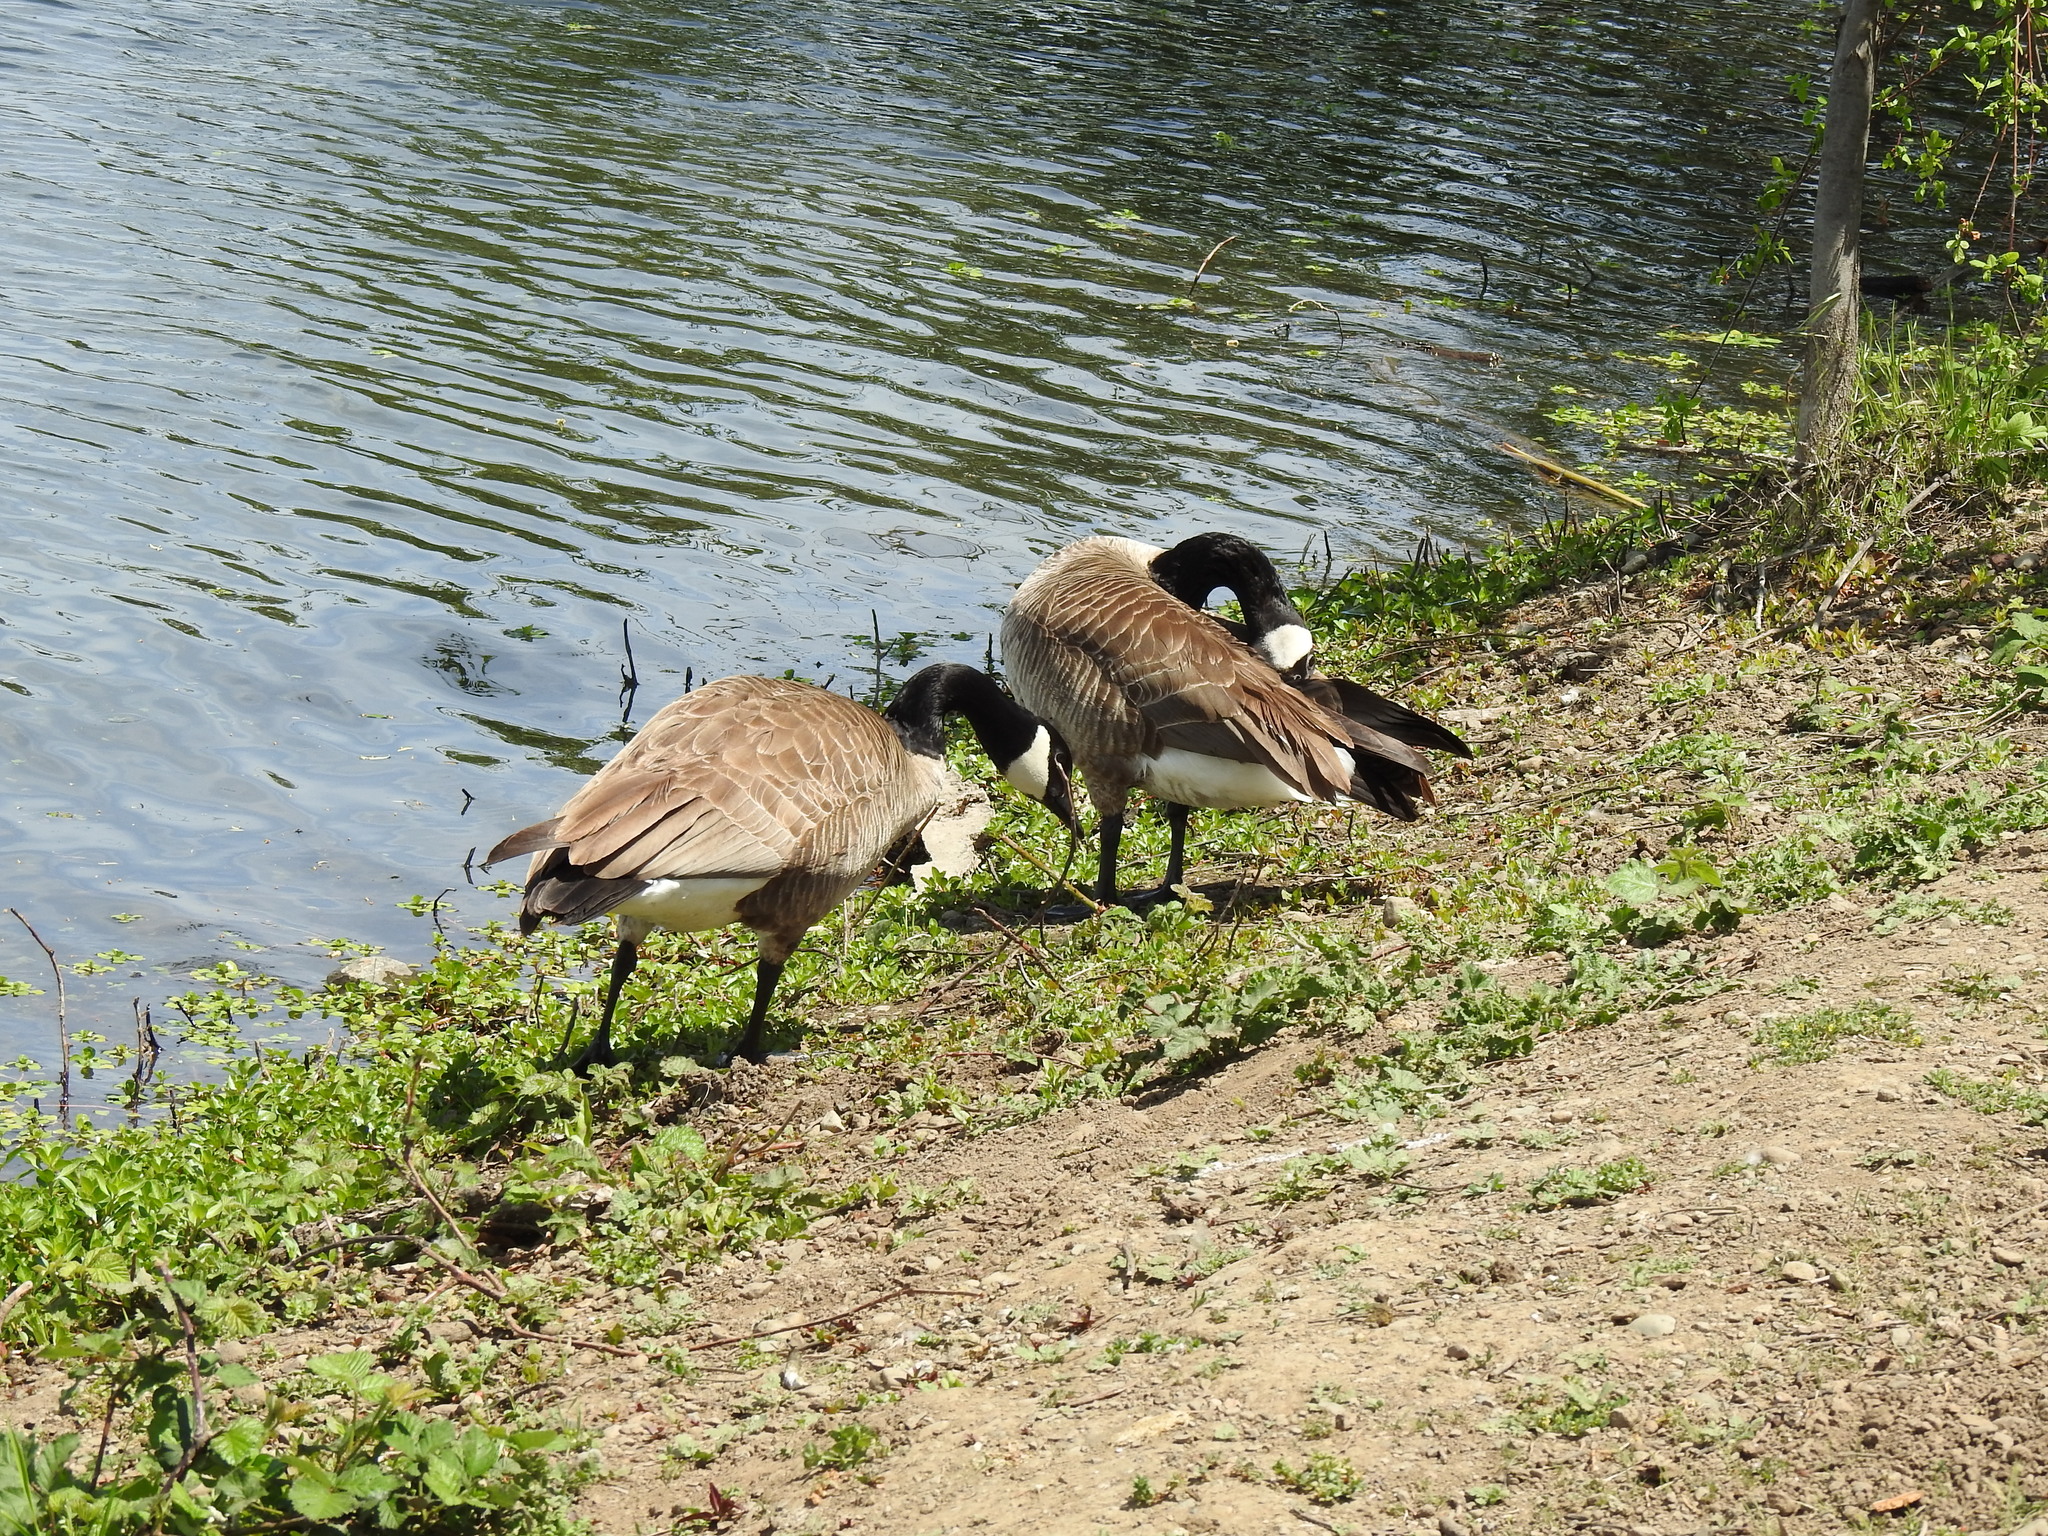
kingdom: Animalia
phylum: Chordata
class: Aves
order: Anseriformes
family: Anatidae
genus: Branta
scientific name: Branta canadensis
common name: Canada goose
